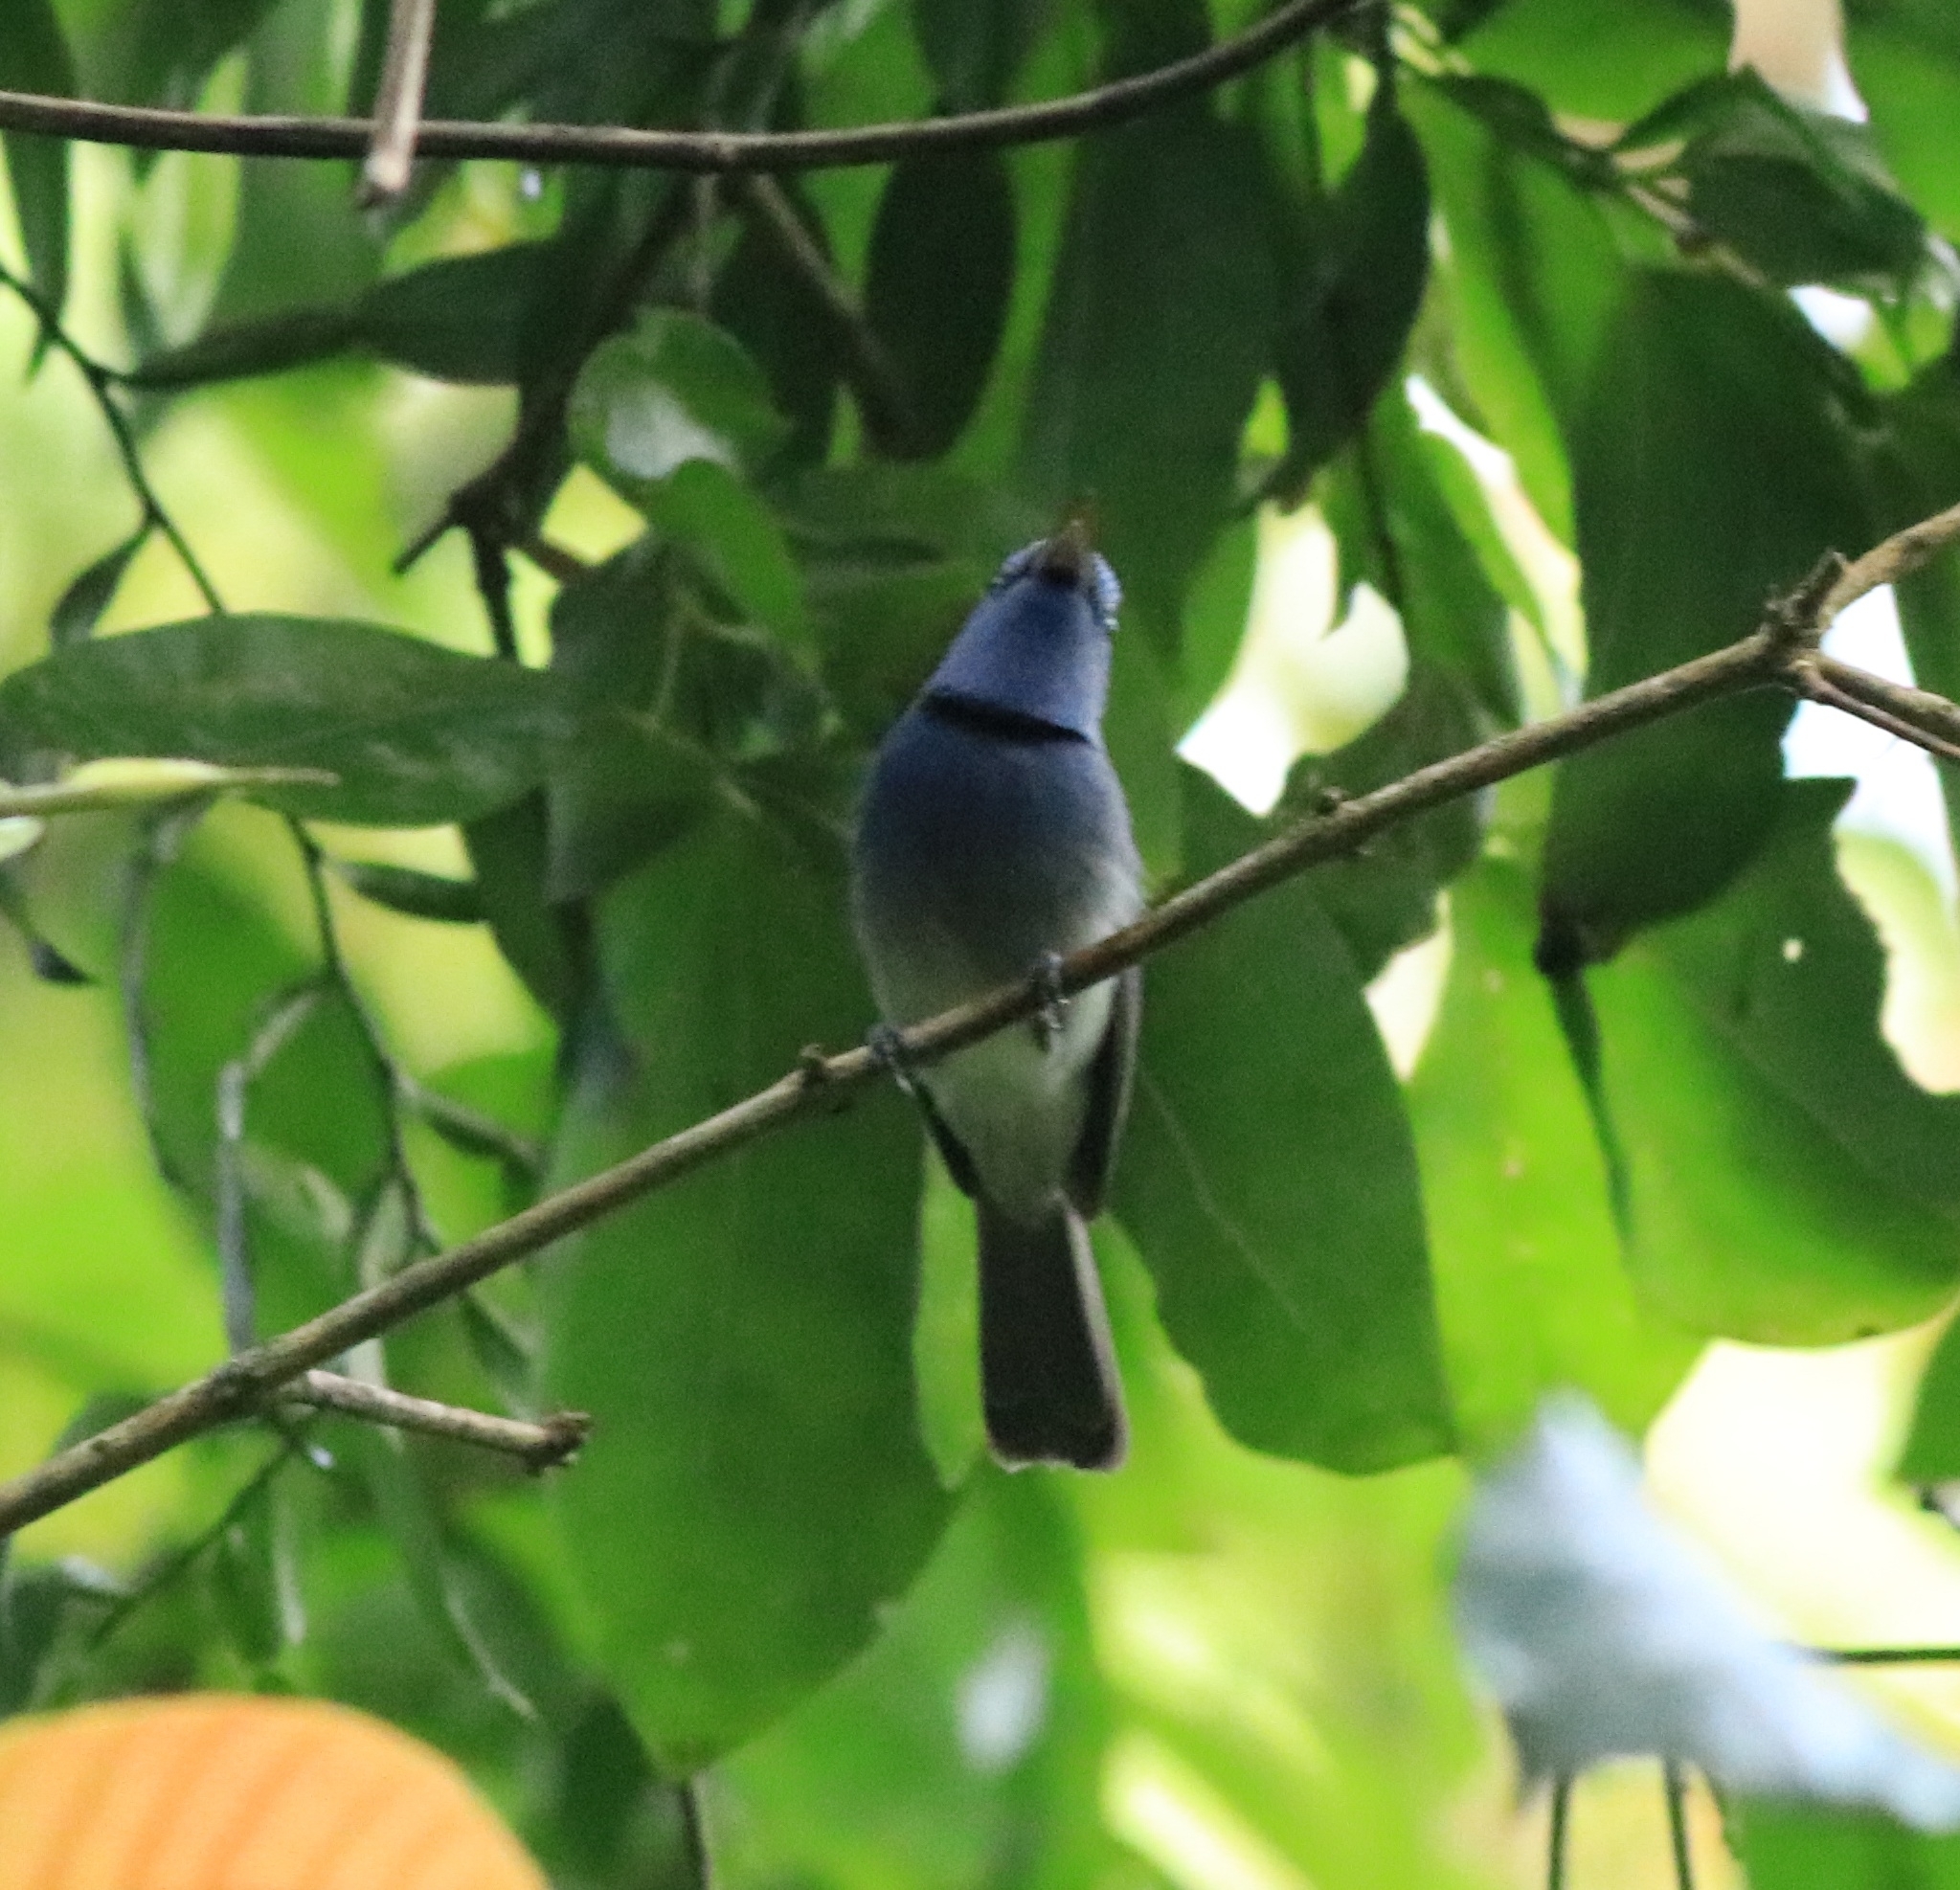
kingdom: Animalia
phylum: Chordata
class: Aves
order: Passeriformes
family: Monarchidae
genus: Hypothymis
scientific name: Hypothymis azurea
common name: Black-naped monarch
